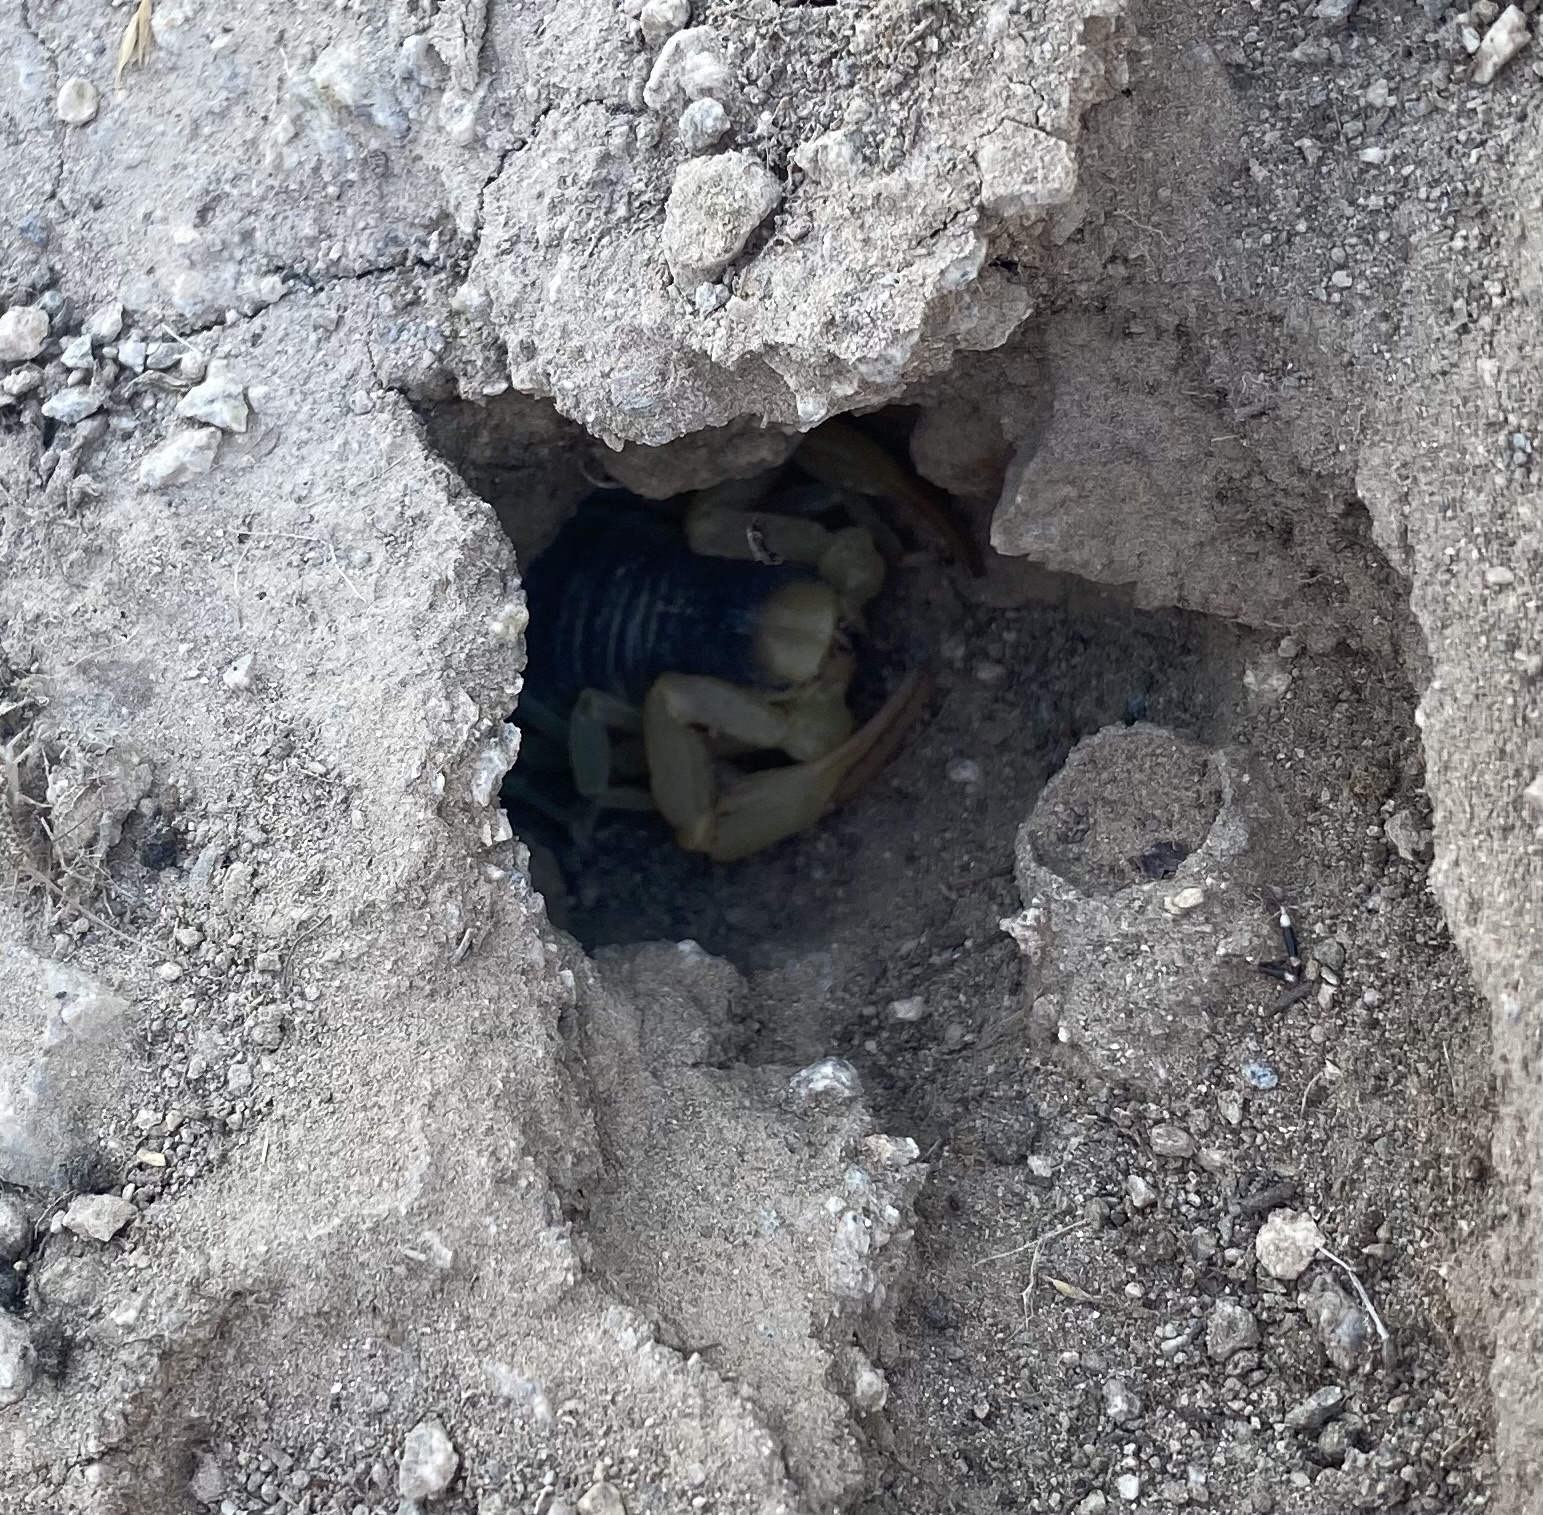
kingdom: Animalia
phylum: Arthropoda
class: Arachnida
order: Scorpiones
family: Hadruridae
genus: Hadrurus
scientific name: Hadrurus arizonensis
